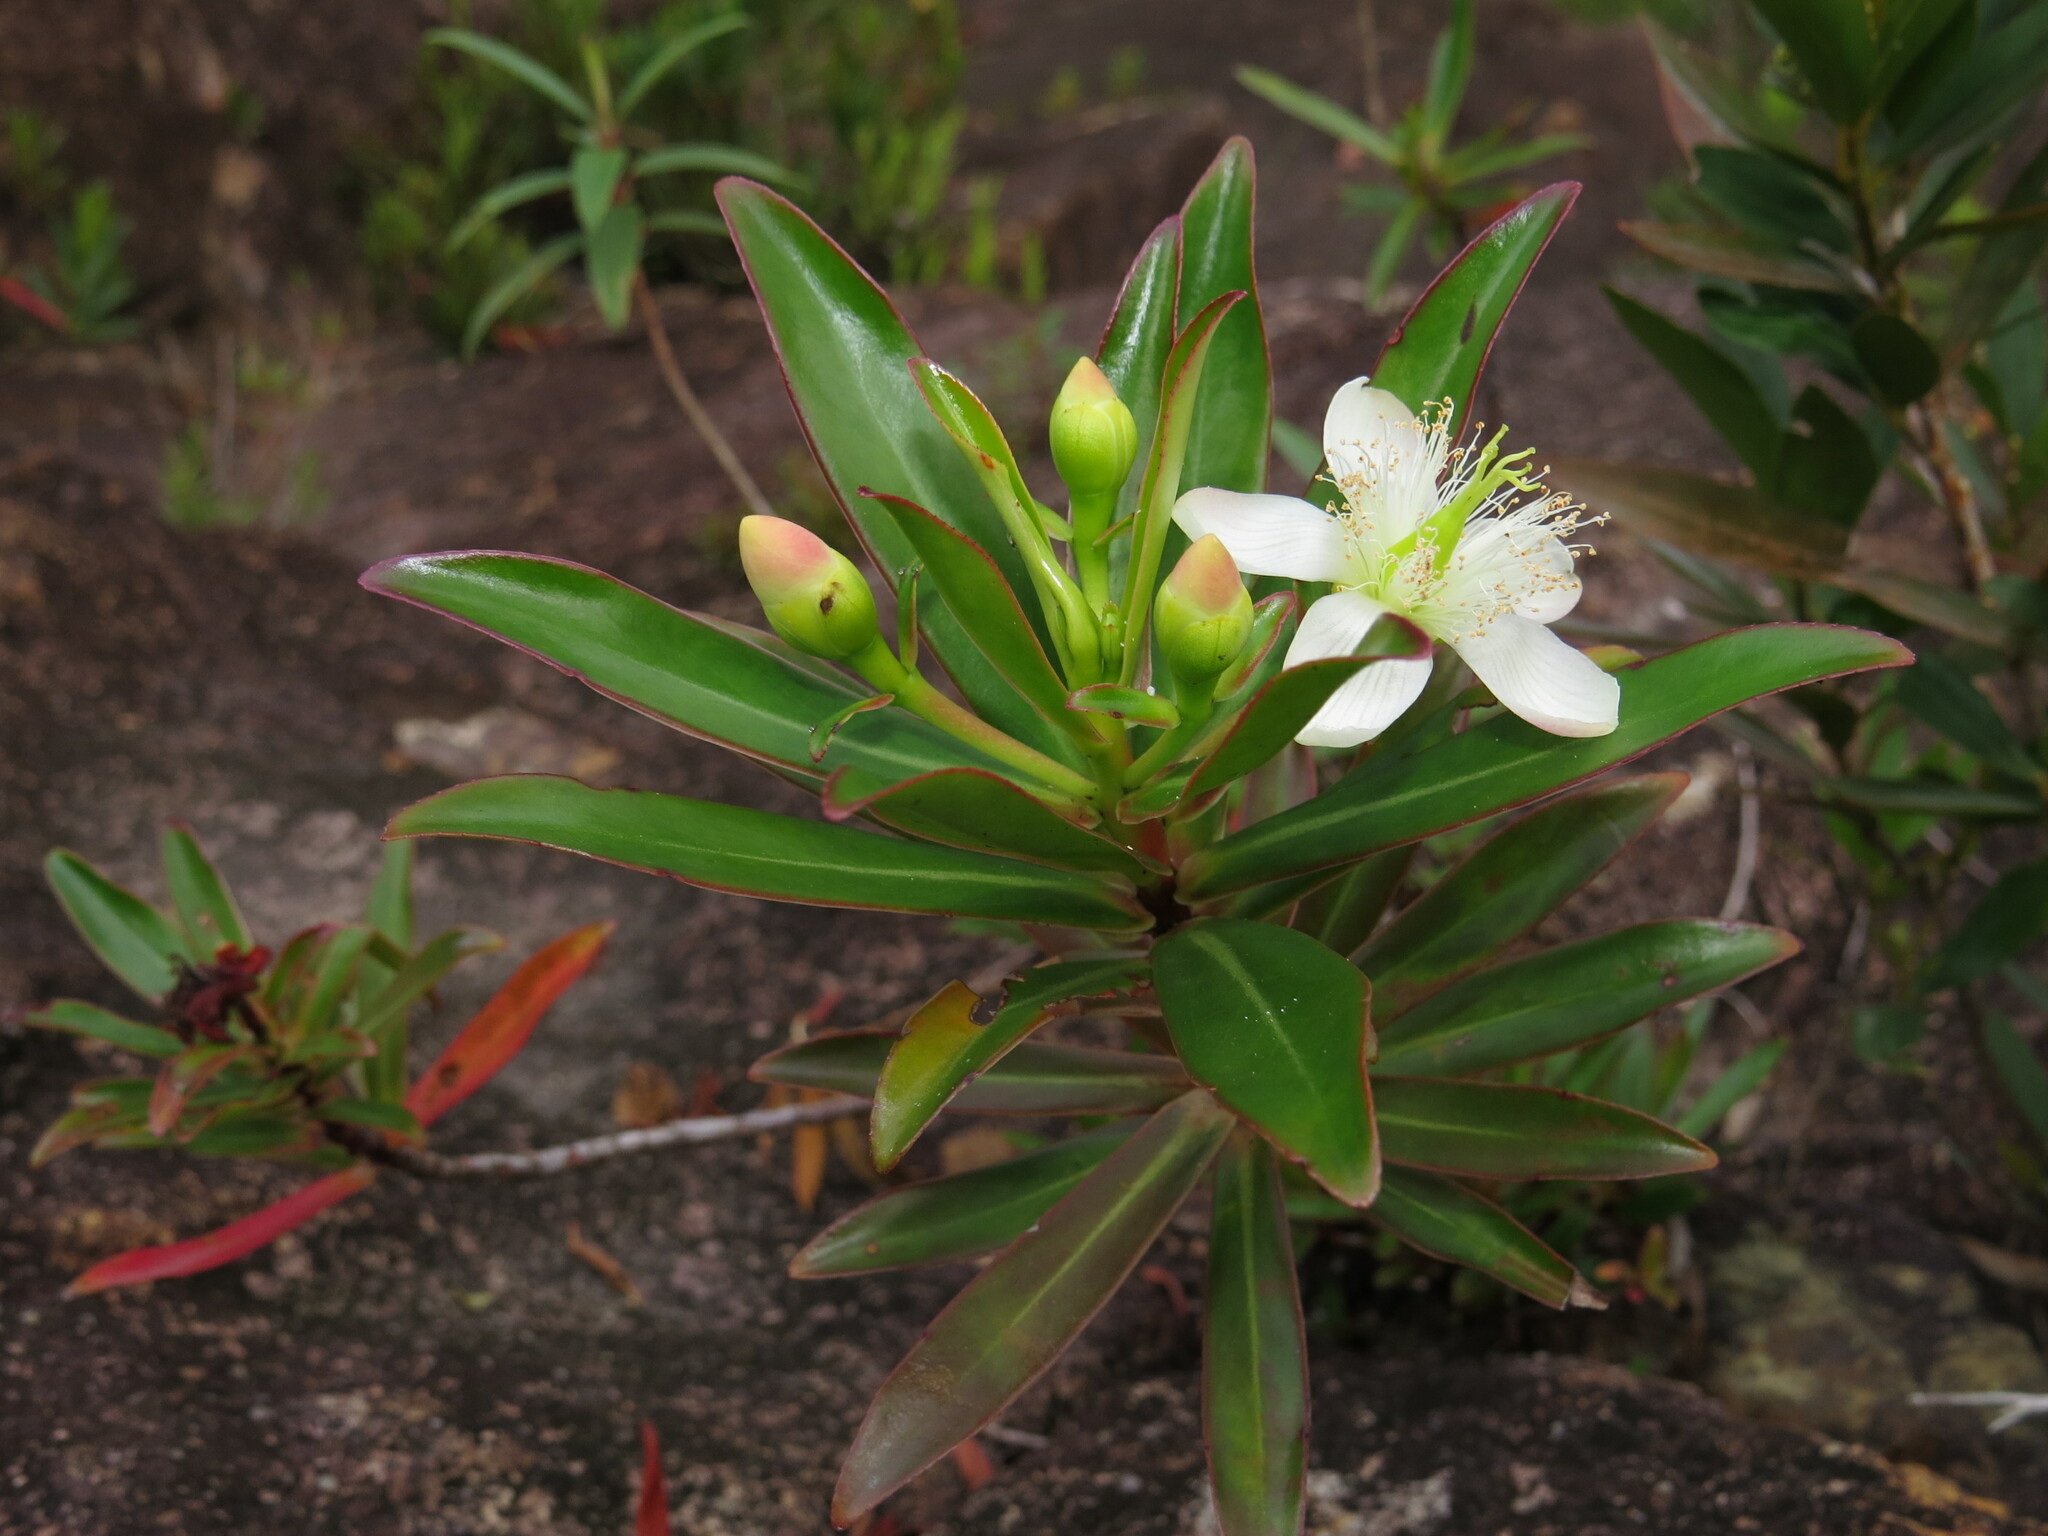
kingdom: Plantae
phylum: Tracheophyta
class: Magnoliopsida
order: Malpighiales
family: Bonnetiaceae
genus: Ploiarium
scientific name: Ploiarium elegans
